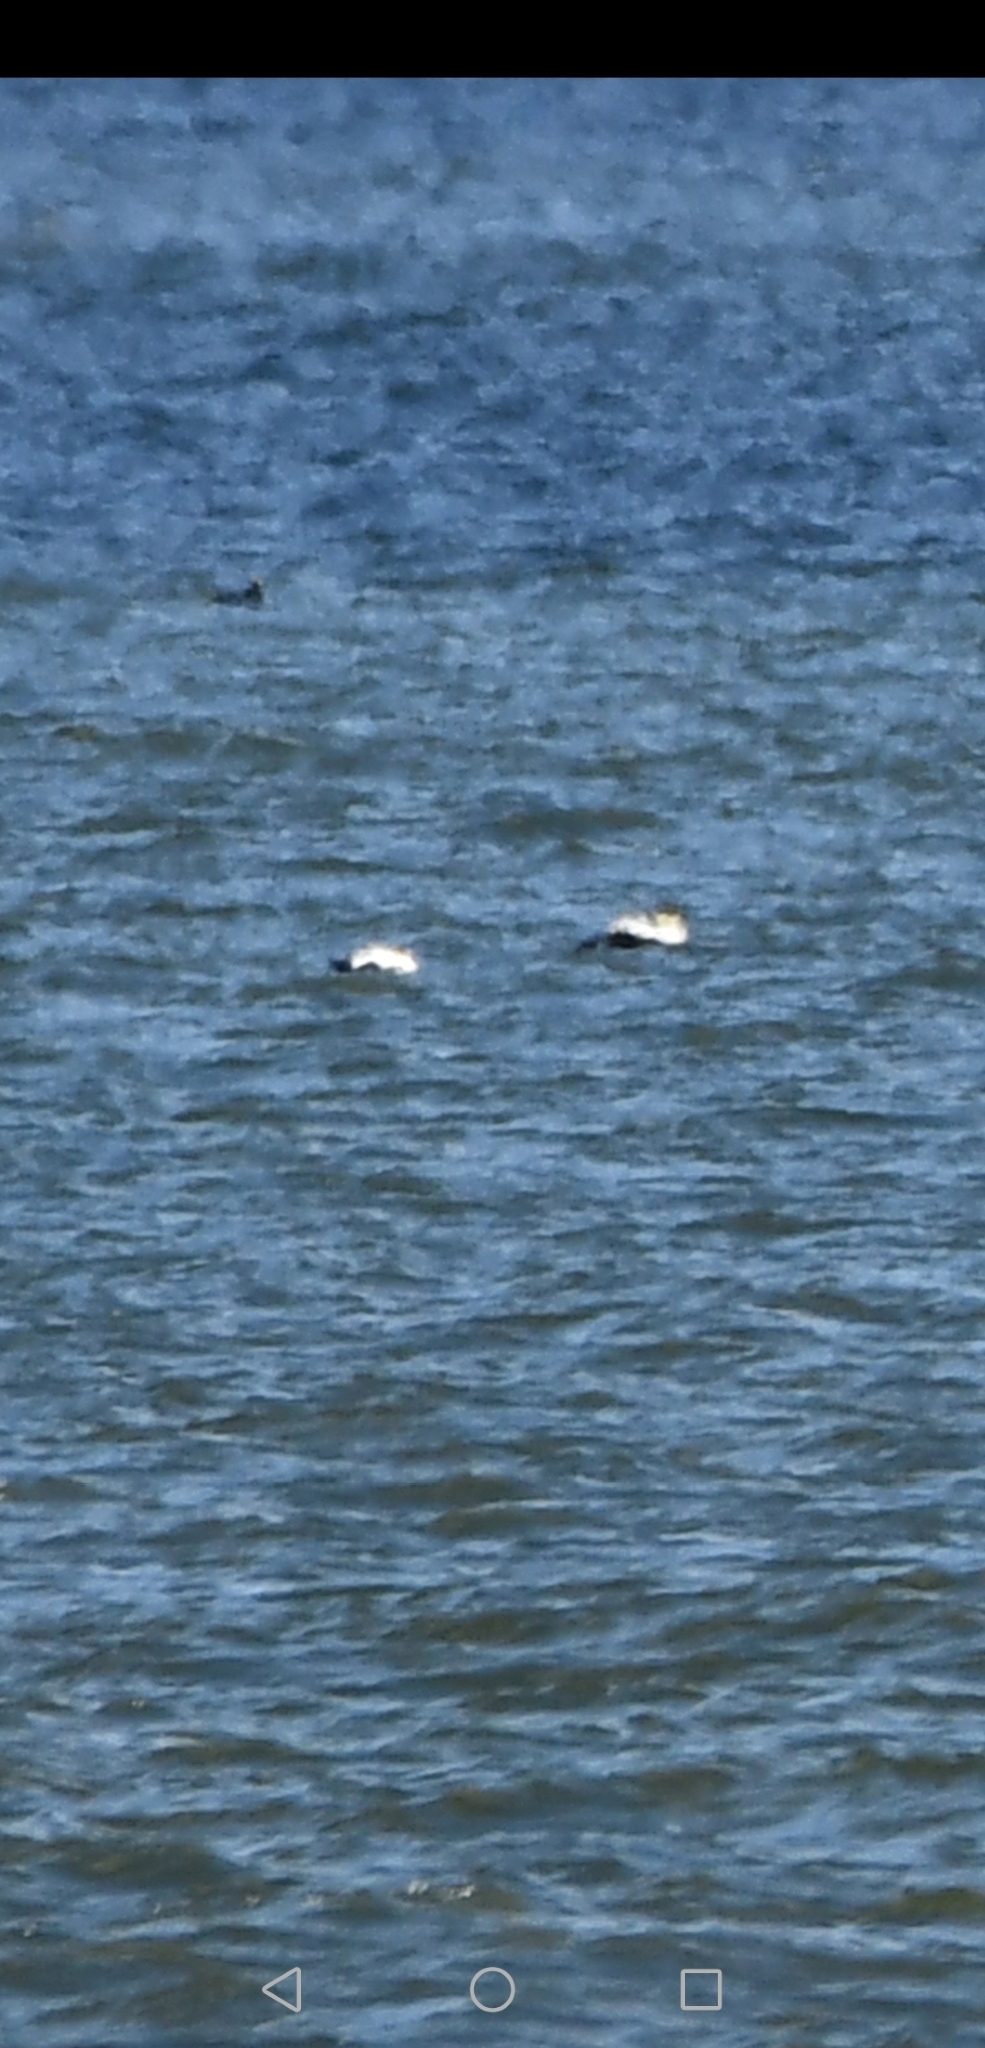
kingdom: Animalia
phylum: Chordata
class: Aves
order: Anseriformes
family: Anatidae
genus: Somateria
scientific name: Somateria mollissima
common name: Common eider
